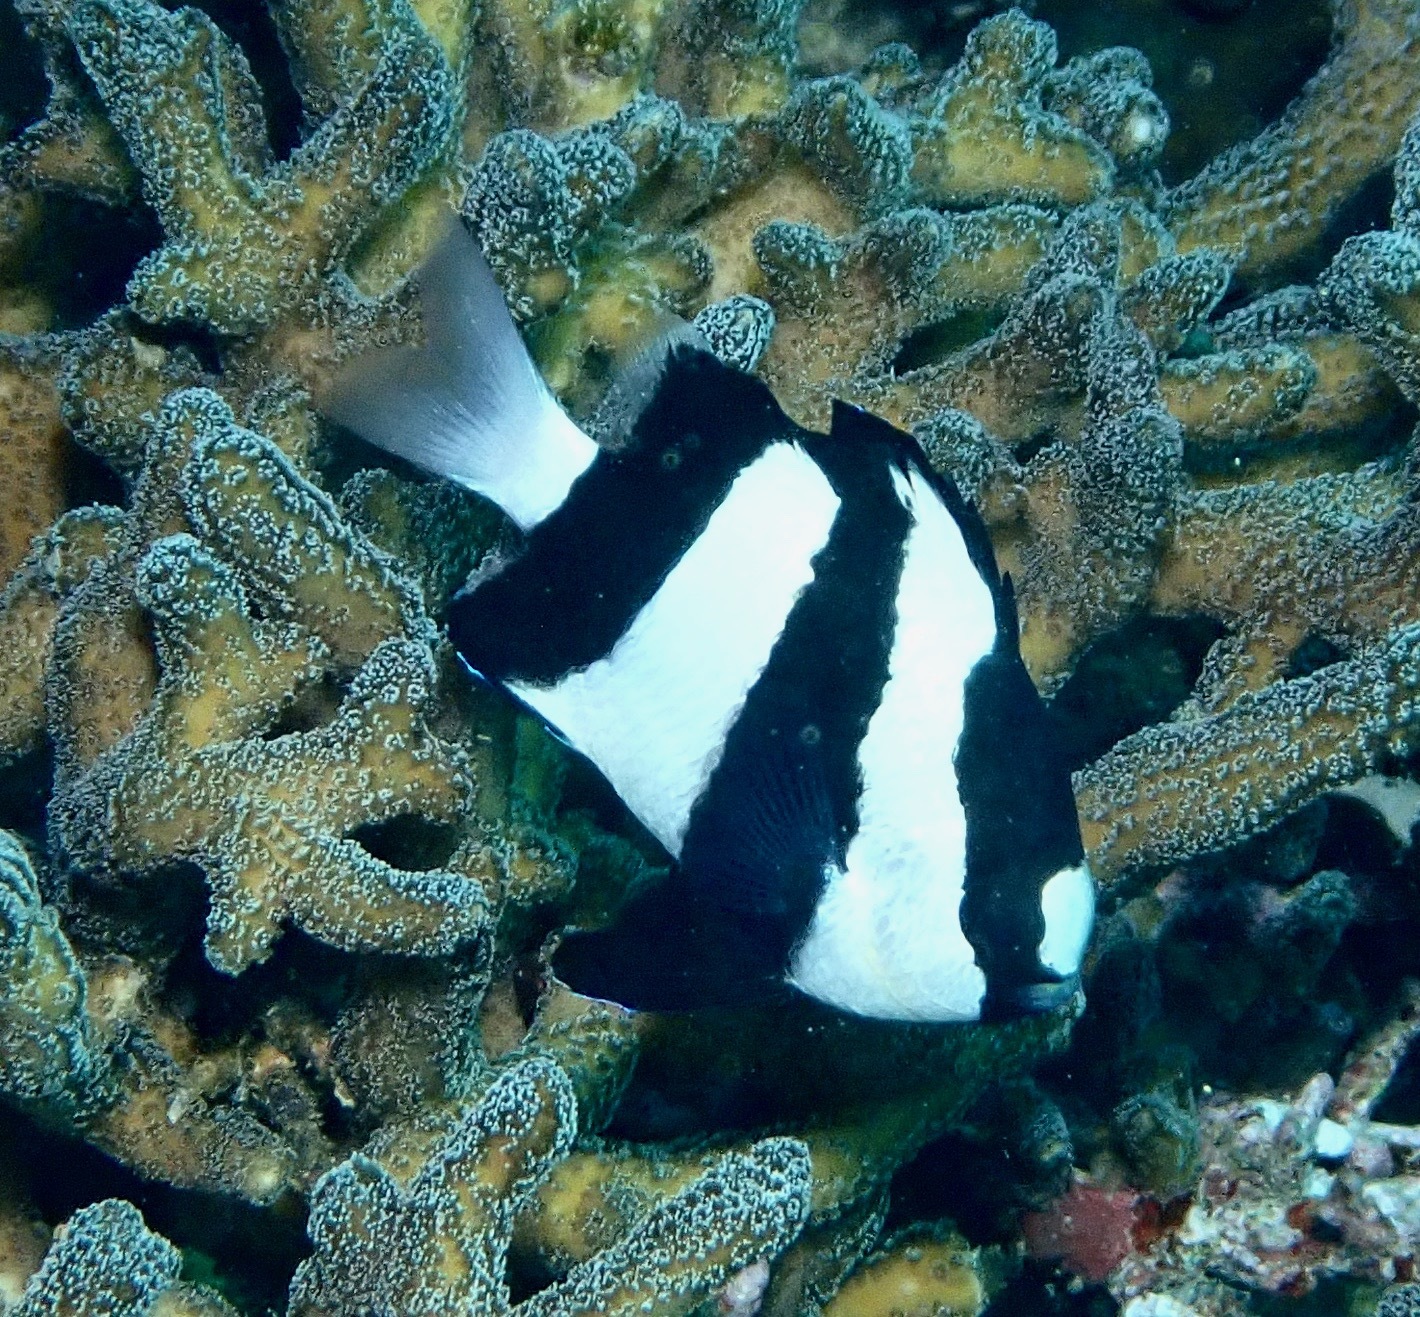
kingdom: Animalia
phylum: Chordata
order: Perciformes
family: Pomacentridae
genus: Dascyllus
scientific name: Dascyllus aruanus
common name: Humbug dascyllus
